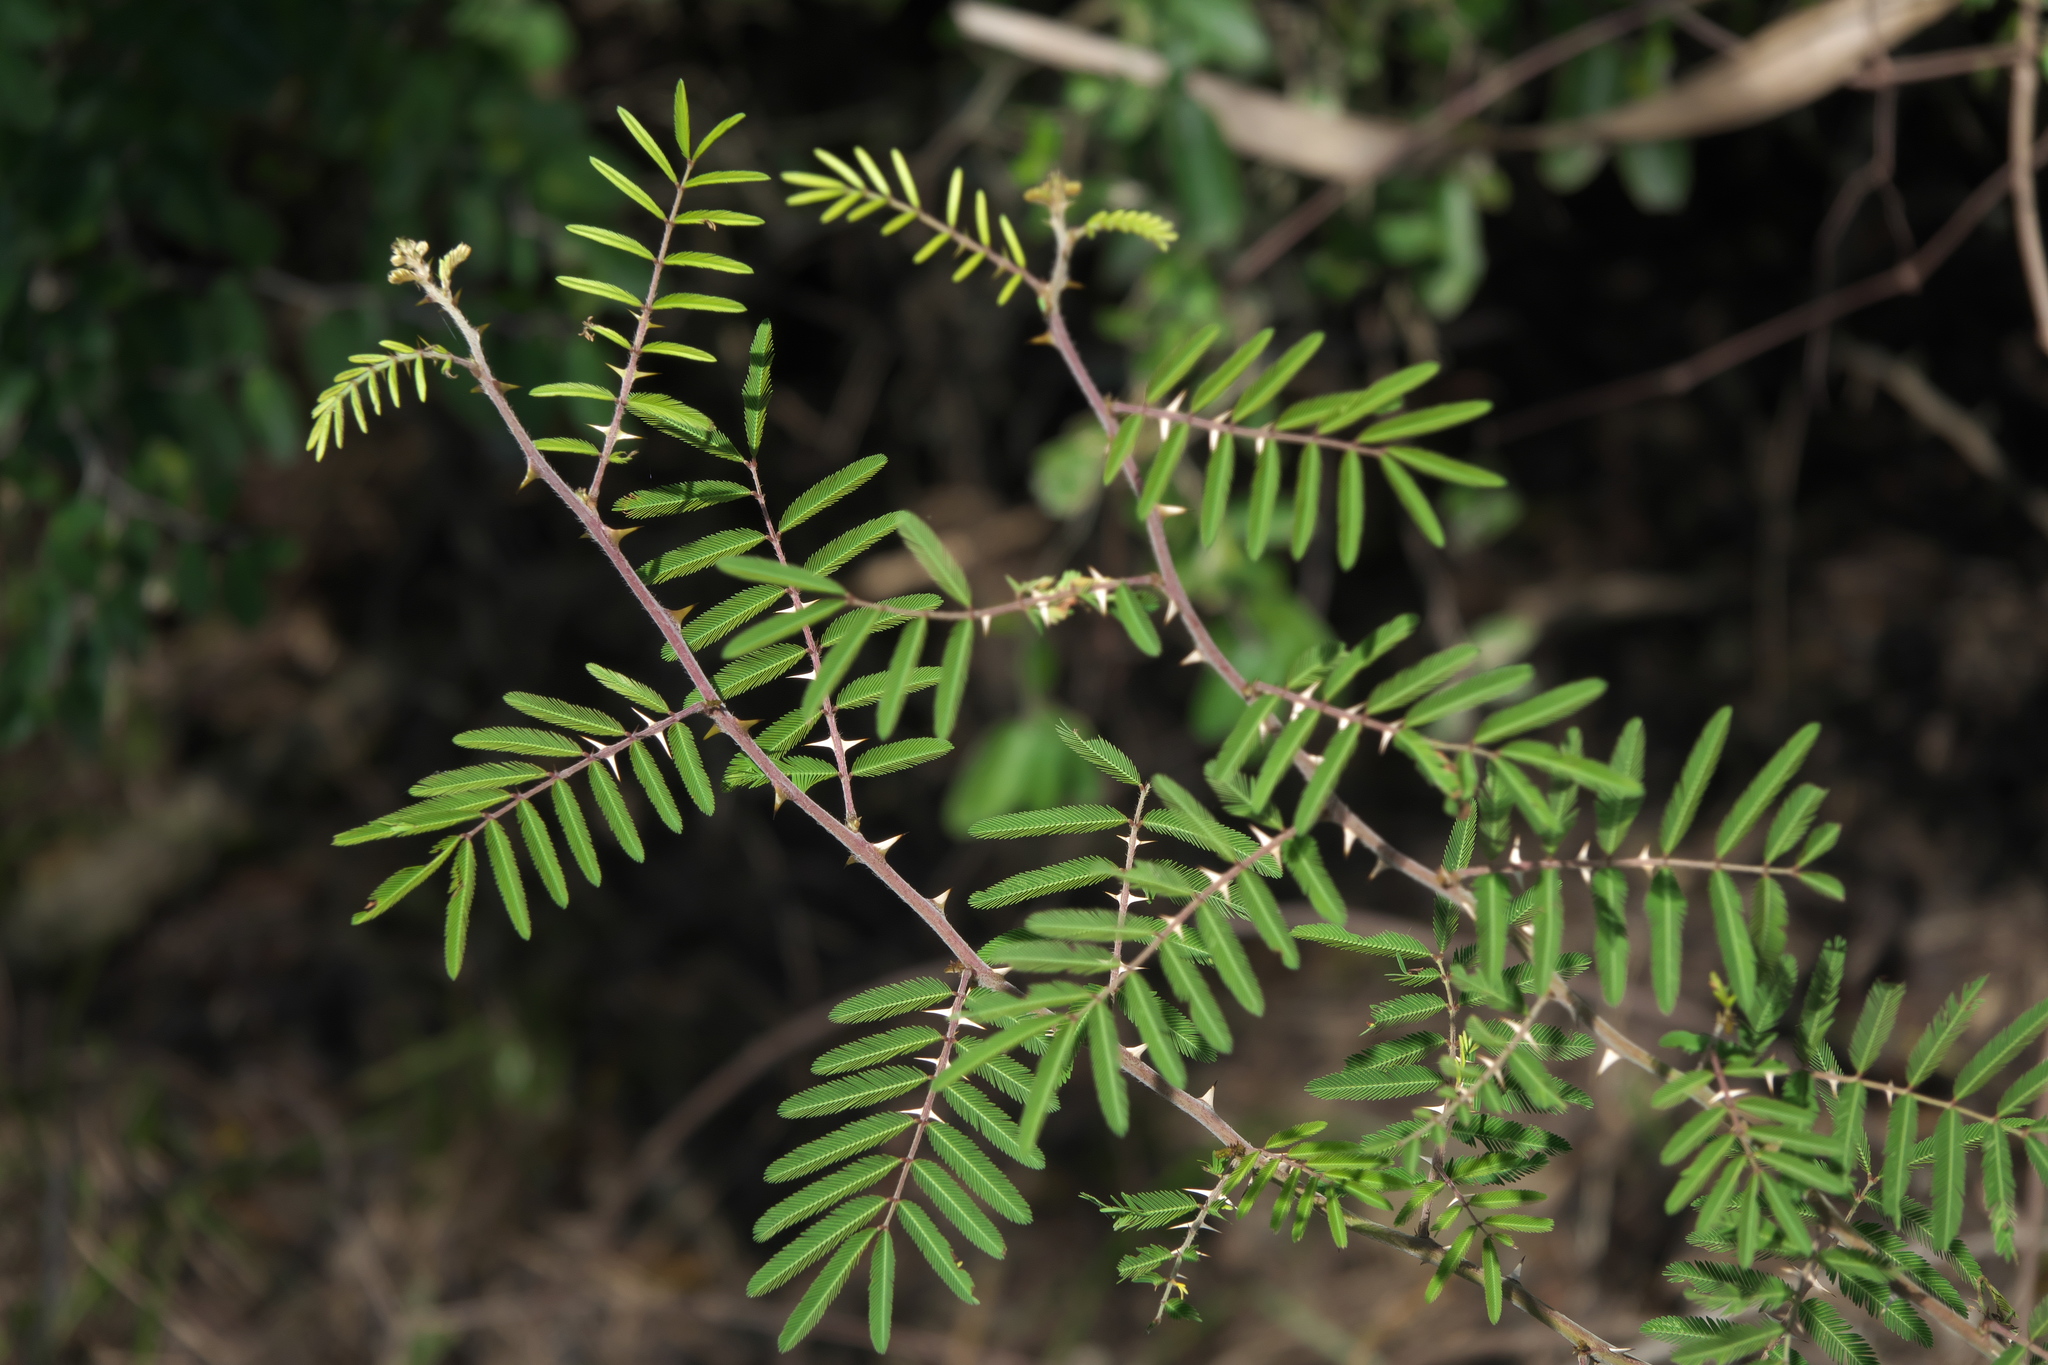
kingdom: Plantae
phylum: Tracheophyta
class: Magnoliopsida
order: Fabales
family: Fabaceae
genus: Mimosa
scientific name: Mimosa pigra
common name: Black mimosa
